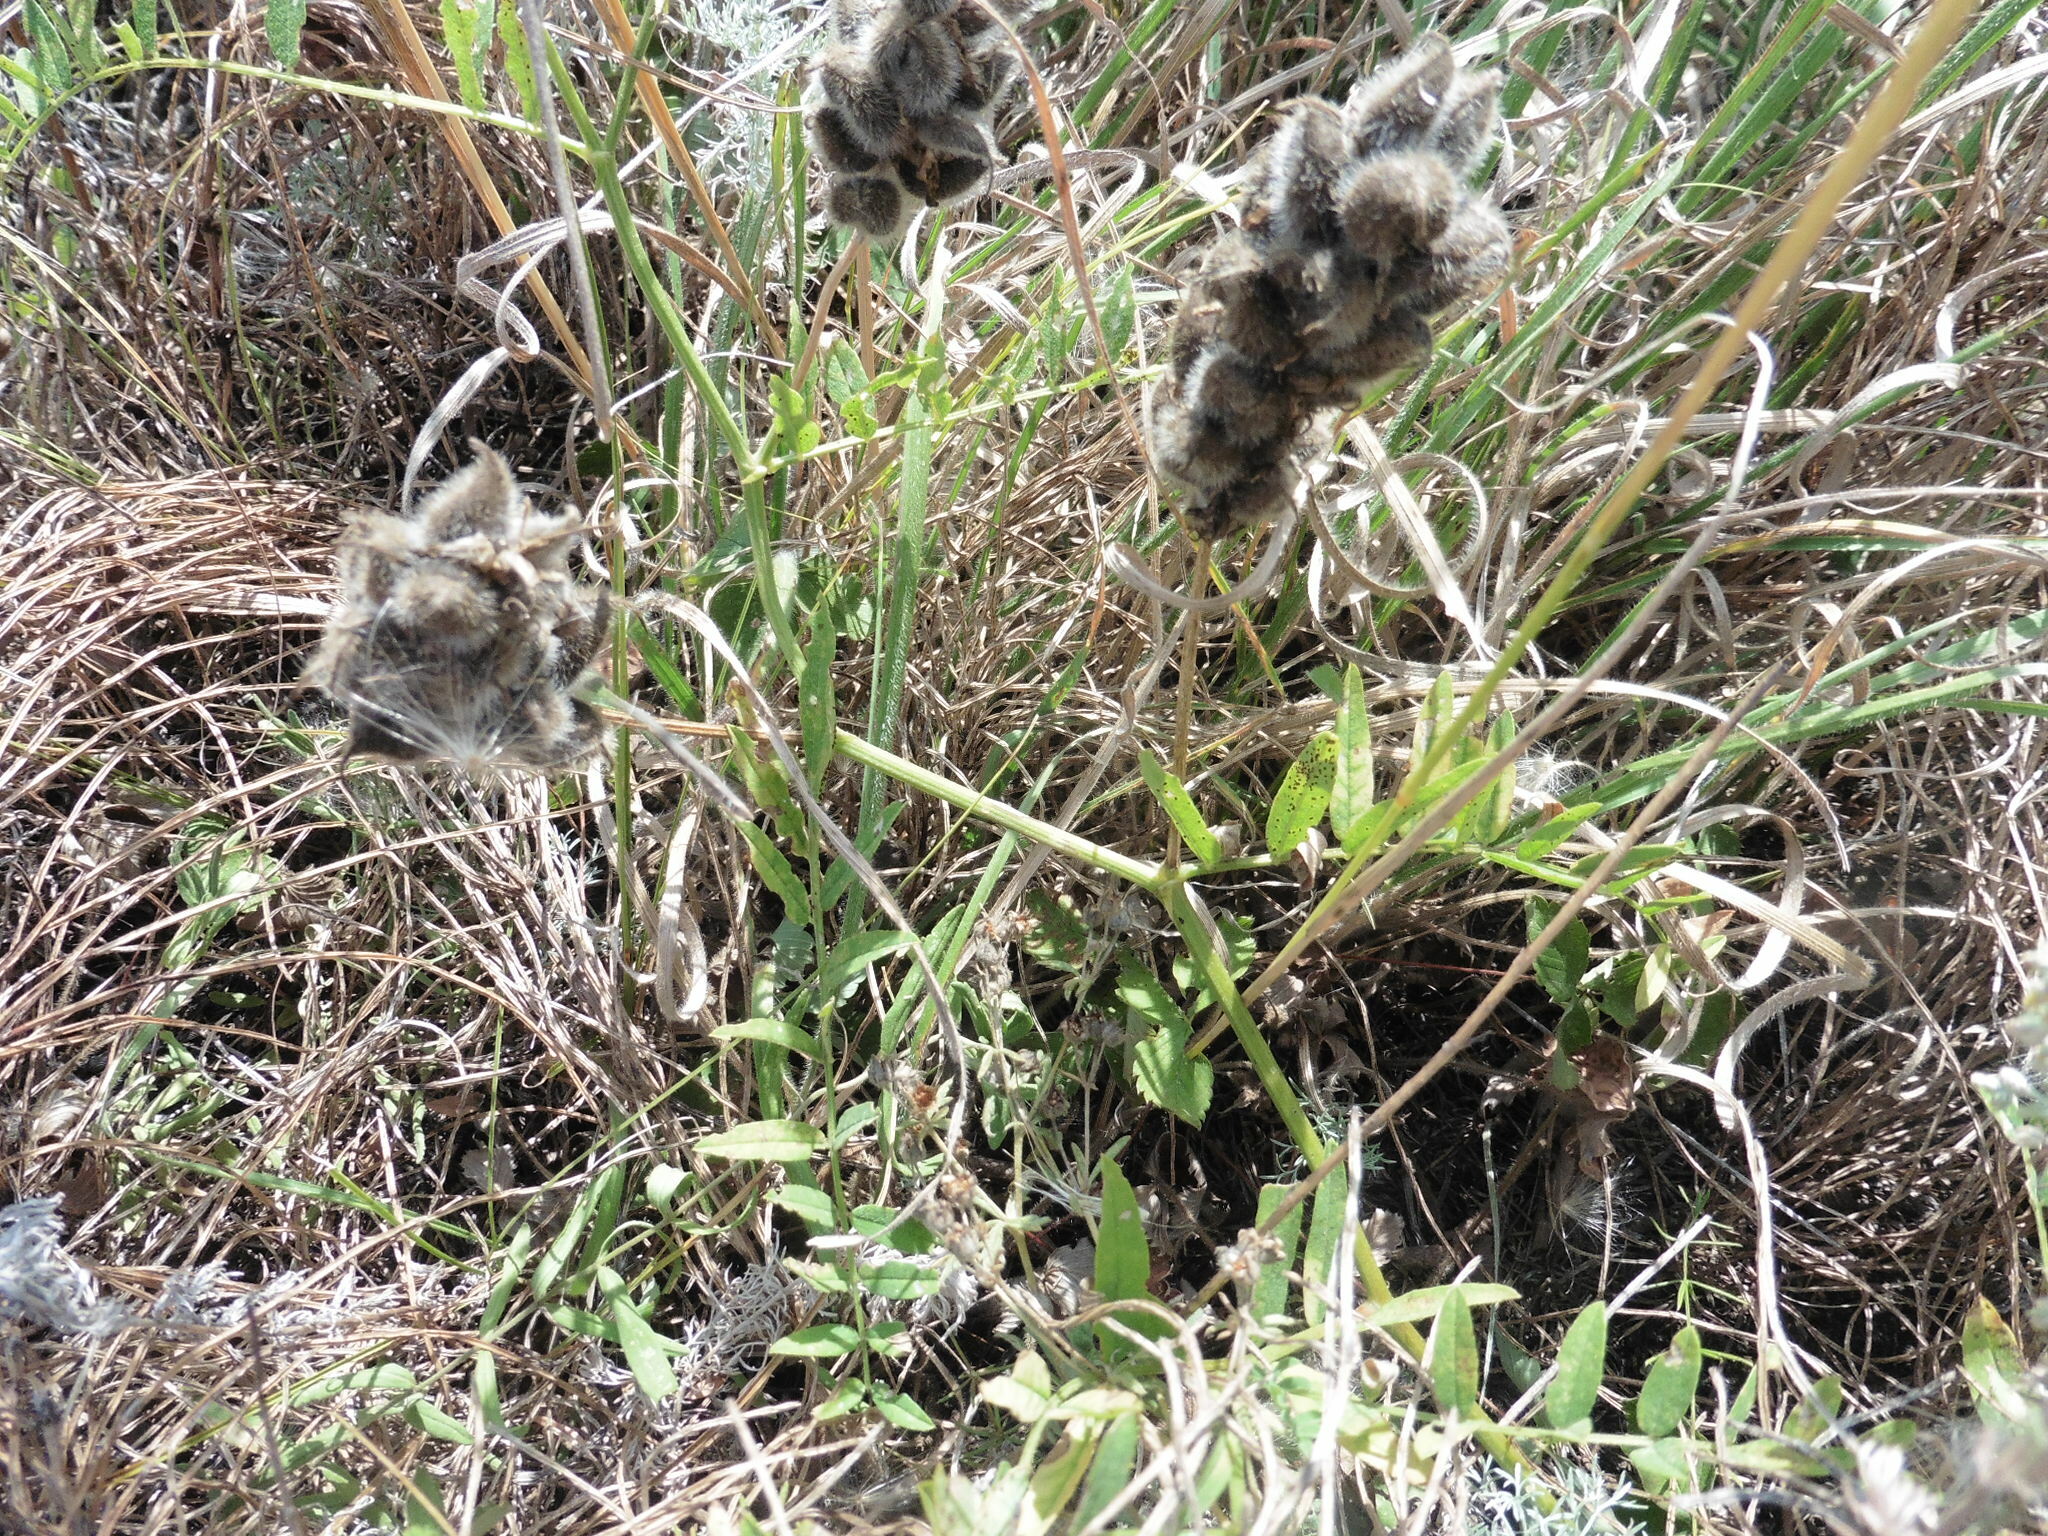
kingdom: Plantae
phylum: Tracheophyta
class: Magnoliopsida
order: Fabales
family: Fabaceae
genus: Astragalus
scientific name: Astragalus cicer
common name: Chick-pea milk-vetch
